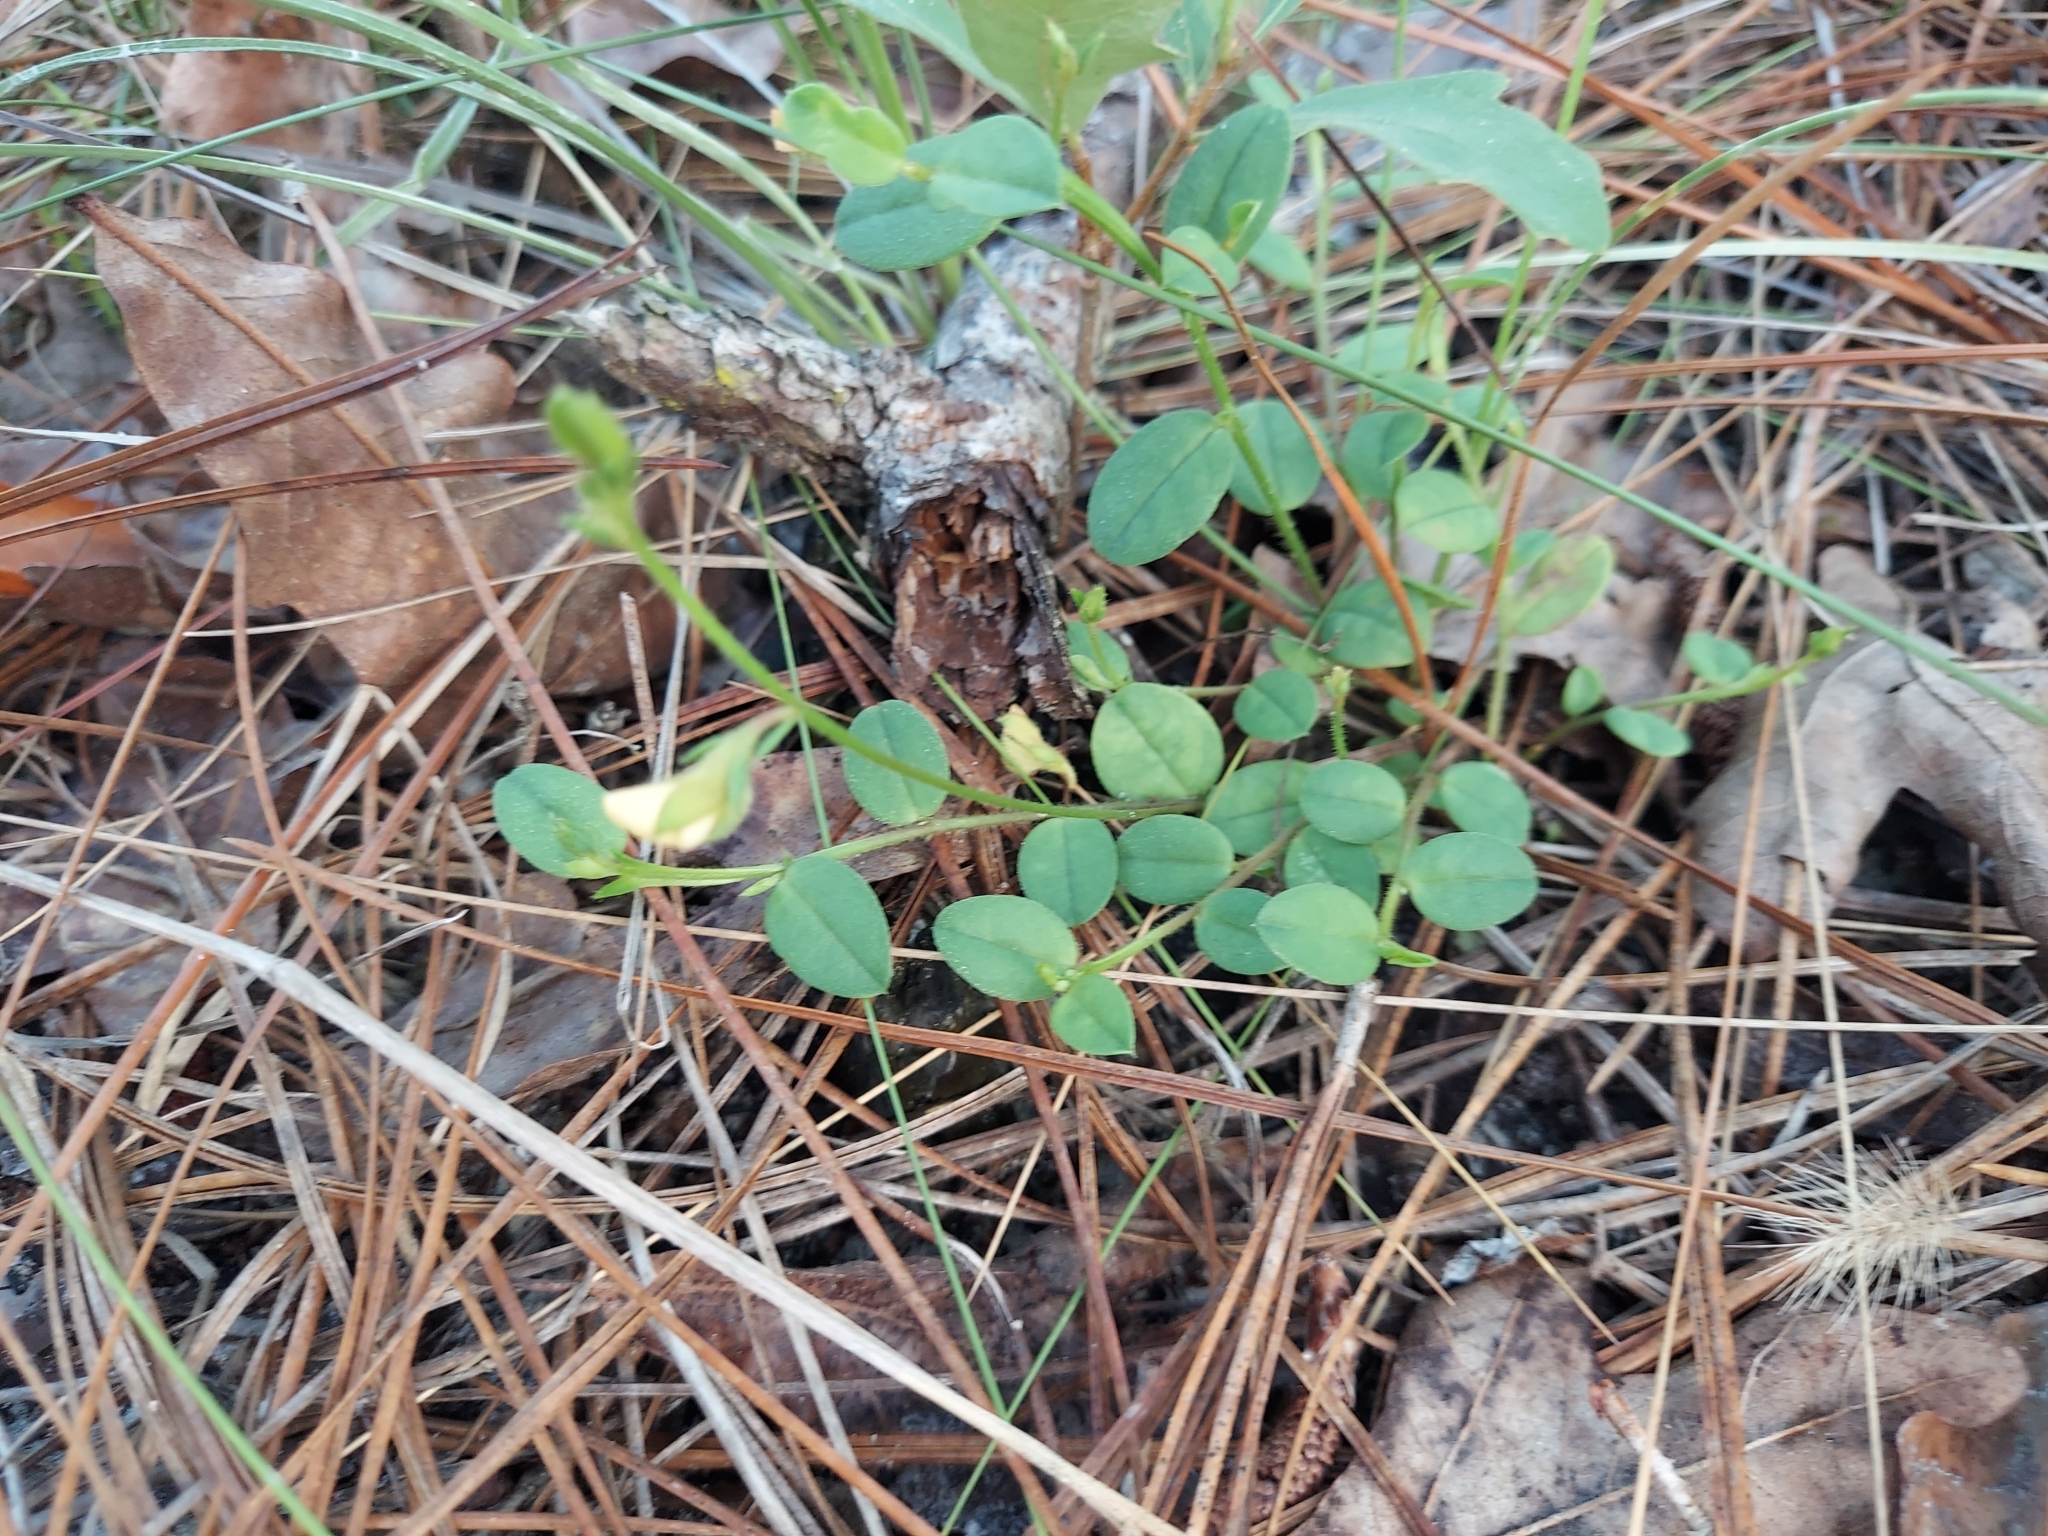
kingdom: Plantae
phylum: Tracheophyta
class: Magnoliopsida
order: Fabales
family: Fabaceae
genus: Crotalaria
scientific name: Crotalaria rotundifolia
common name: Prostrate rattlebox
